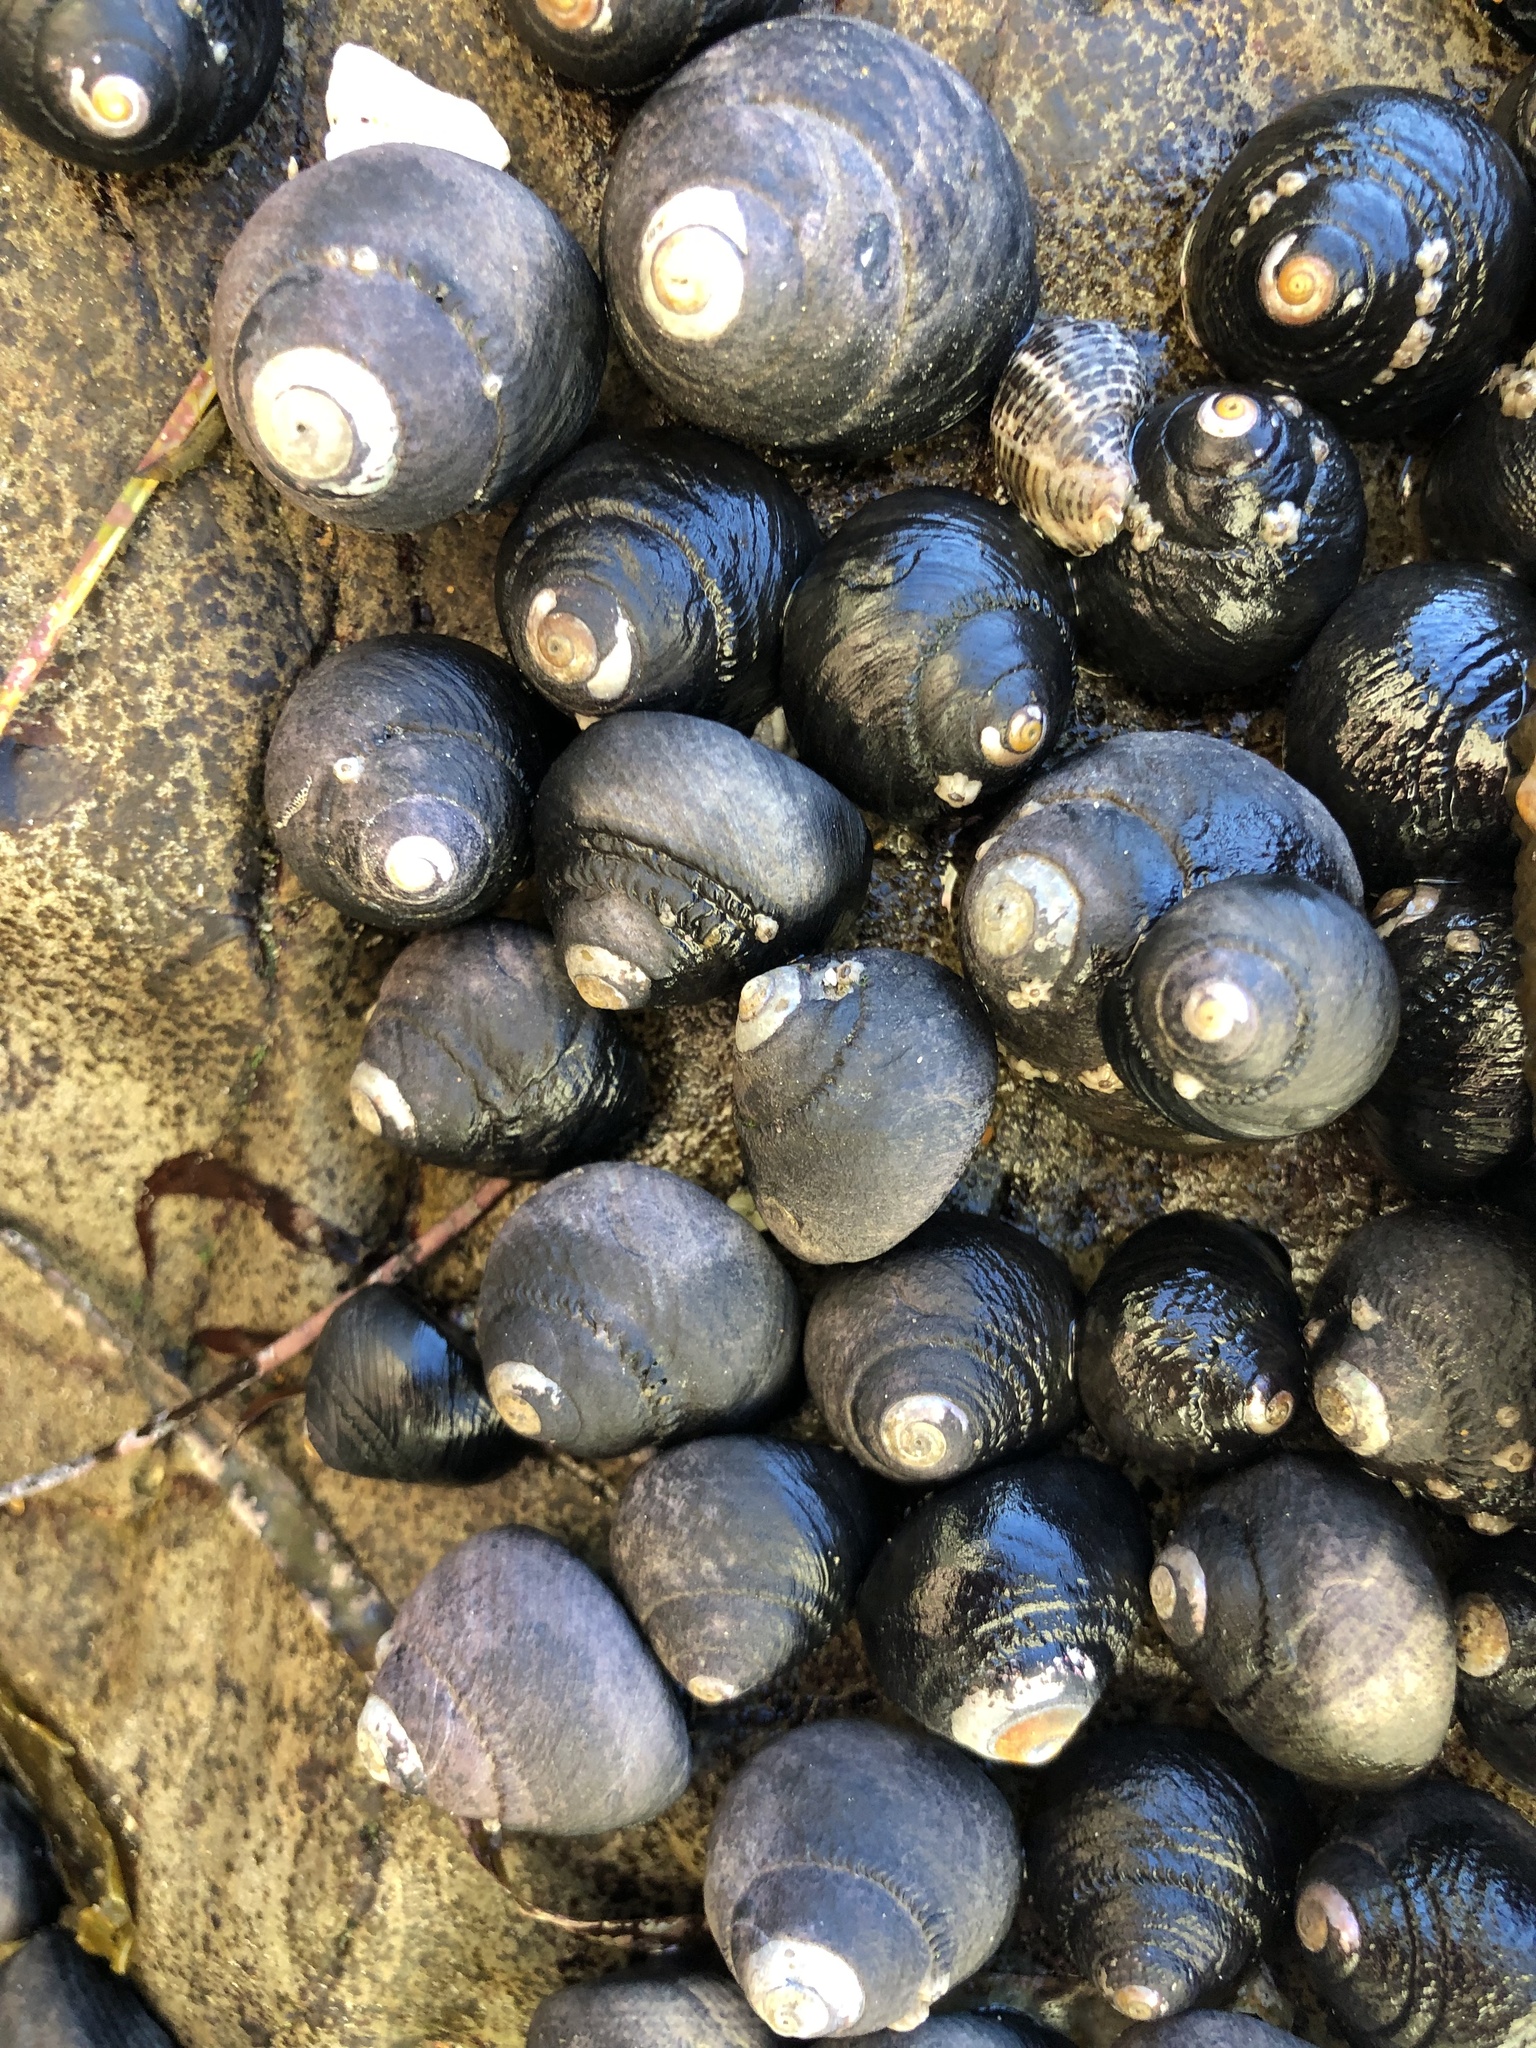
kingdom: Animalia
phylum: Mollusca
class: Gastropoda
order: Trochida
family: Tegulidae
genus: Tegula
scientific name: Tegula funebralis
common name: Black tegula
